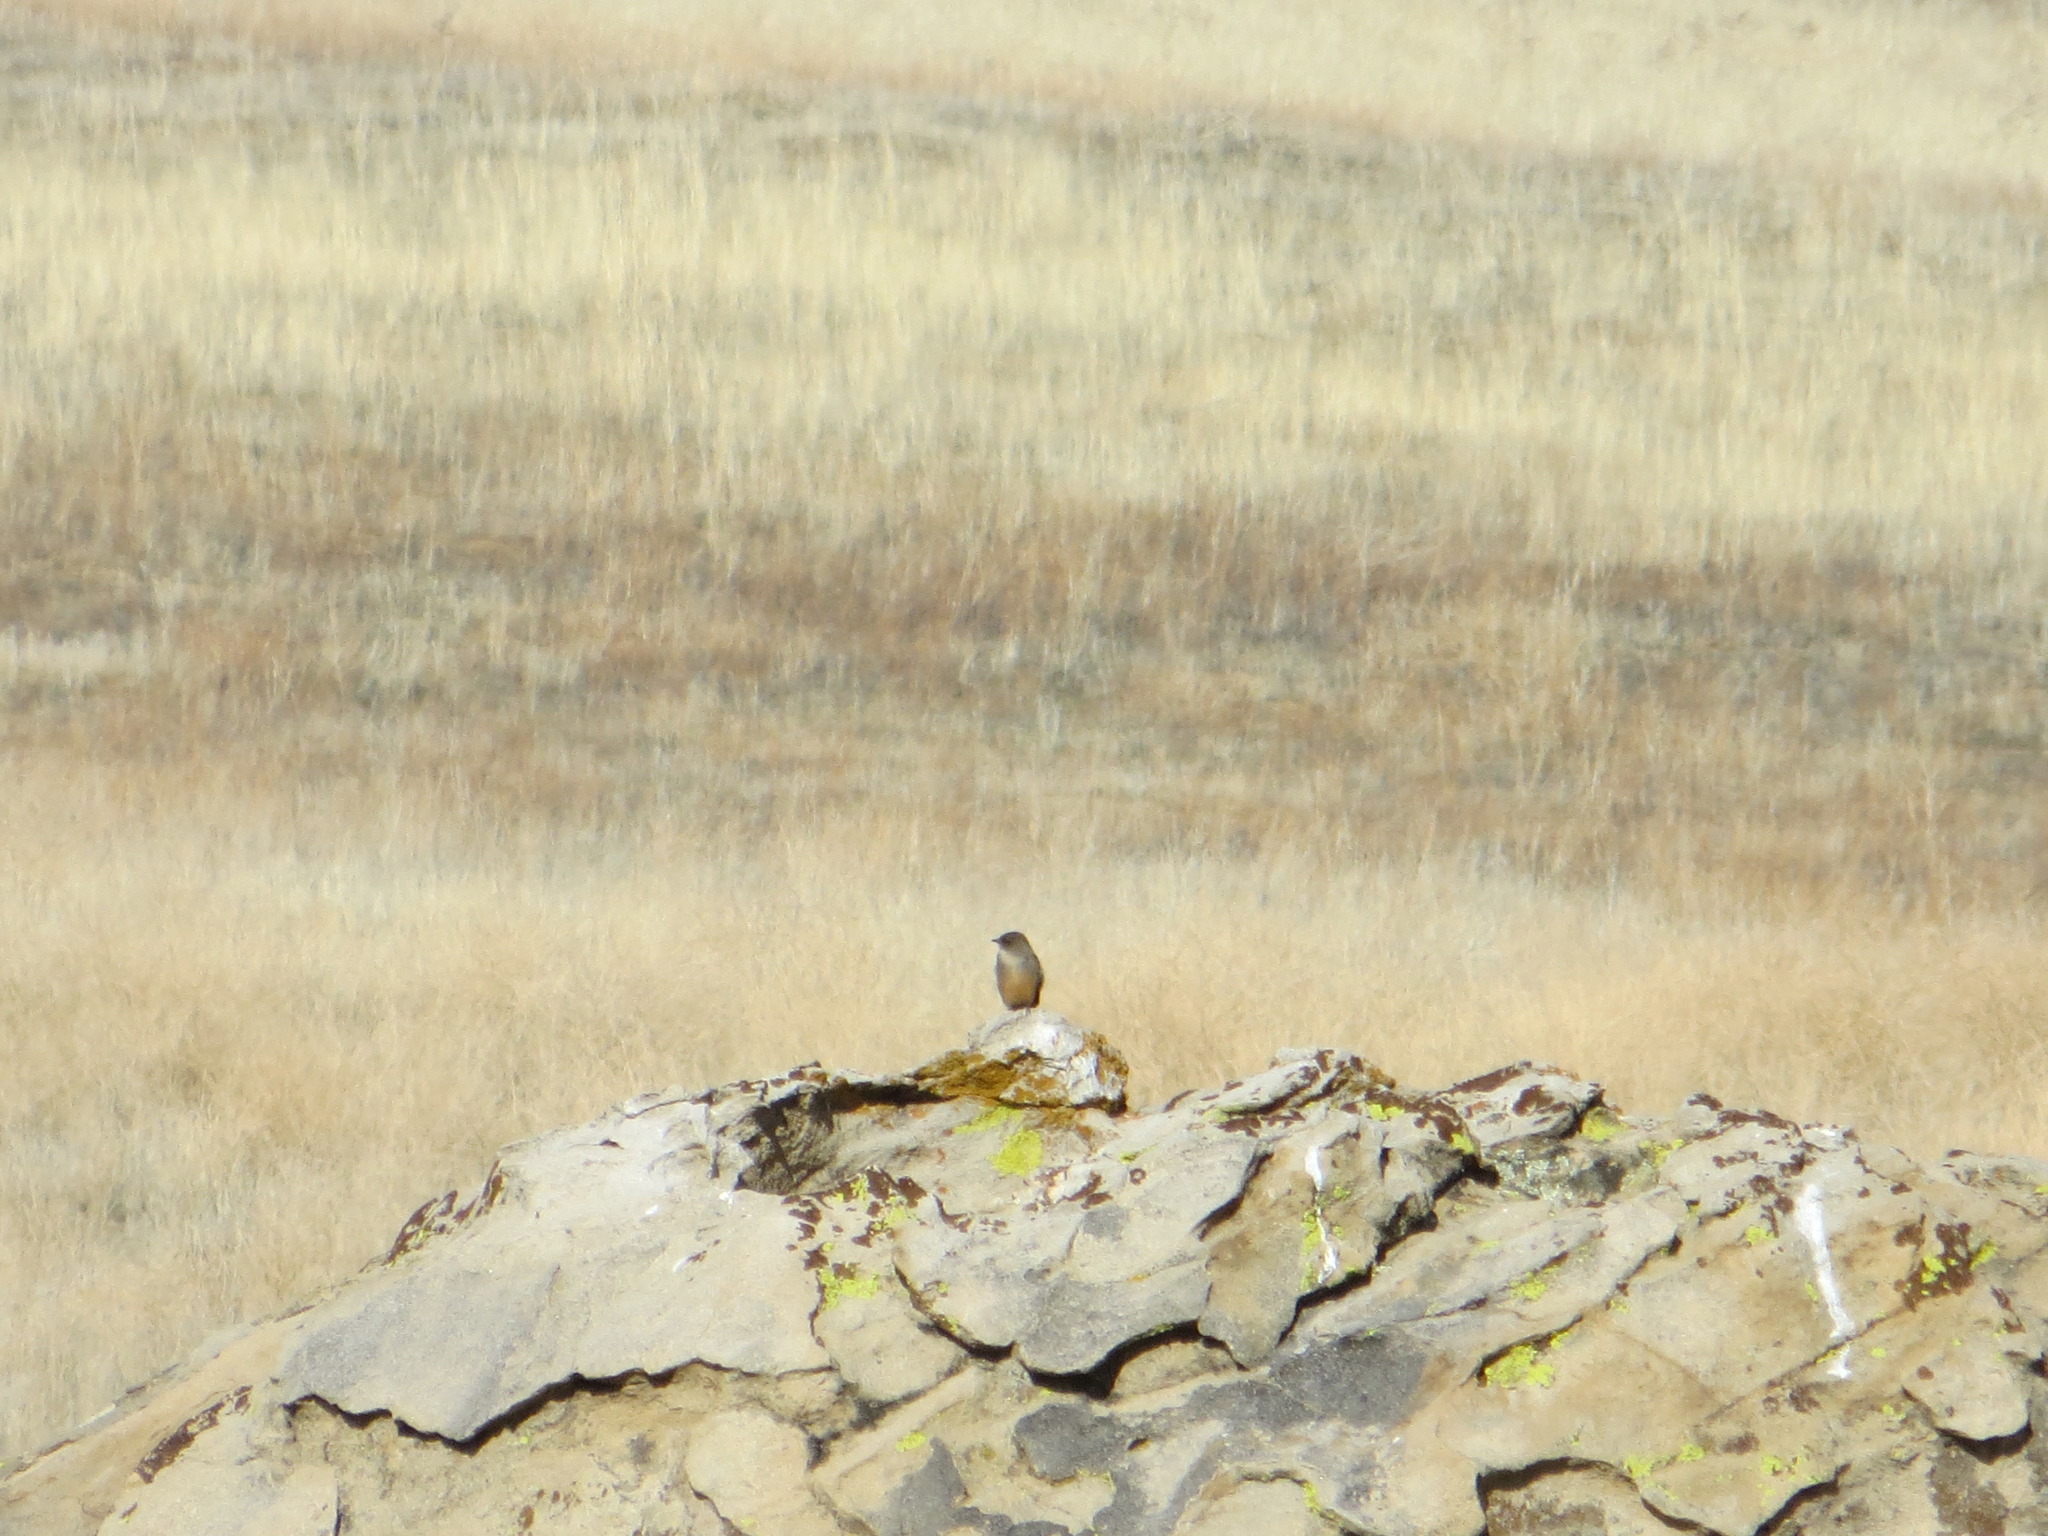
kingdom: Animalia
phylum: Chordata
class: Aves
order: Passeriformes
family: Tyrannidae
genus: Sayornis
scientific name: Sayornis saya
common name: Say's phoebe
